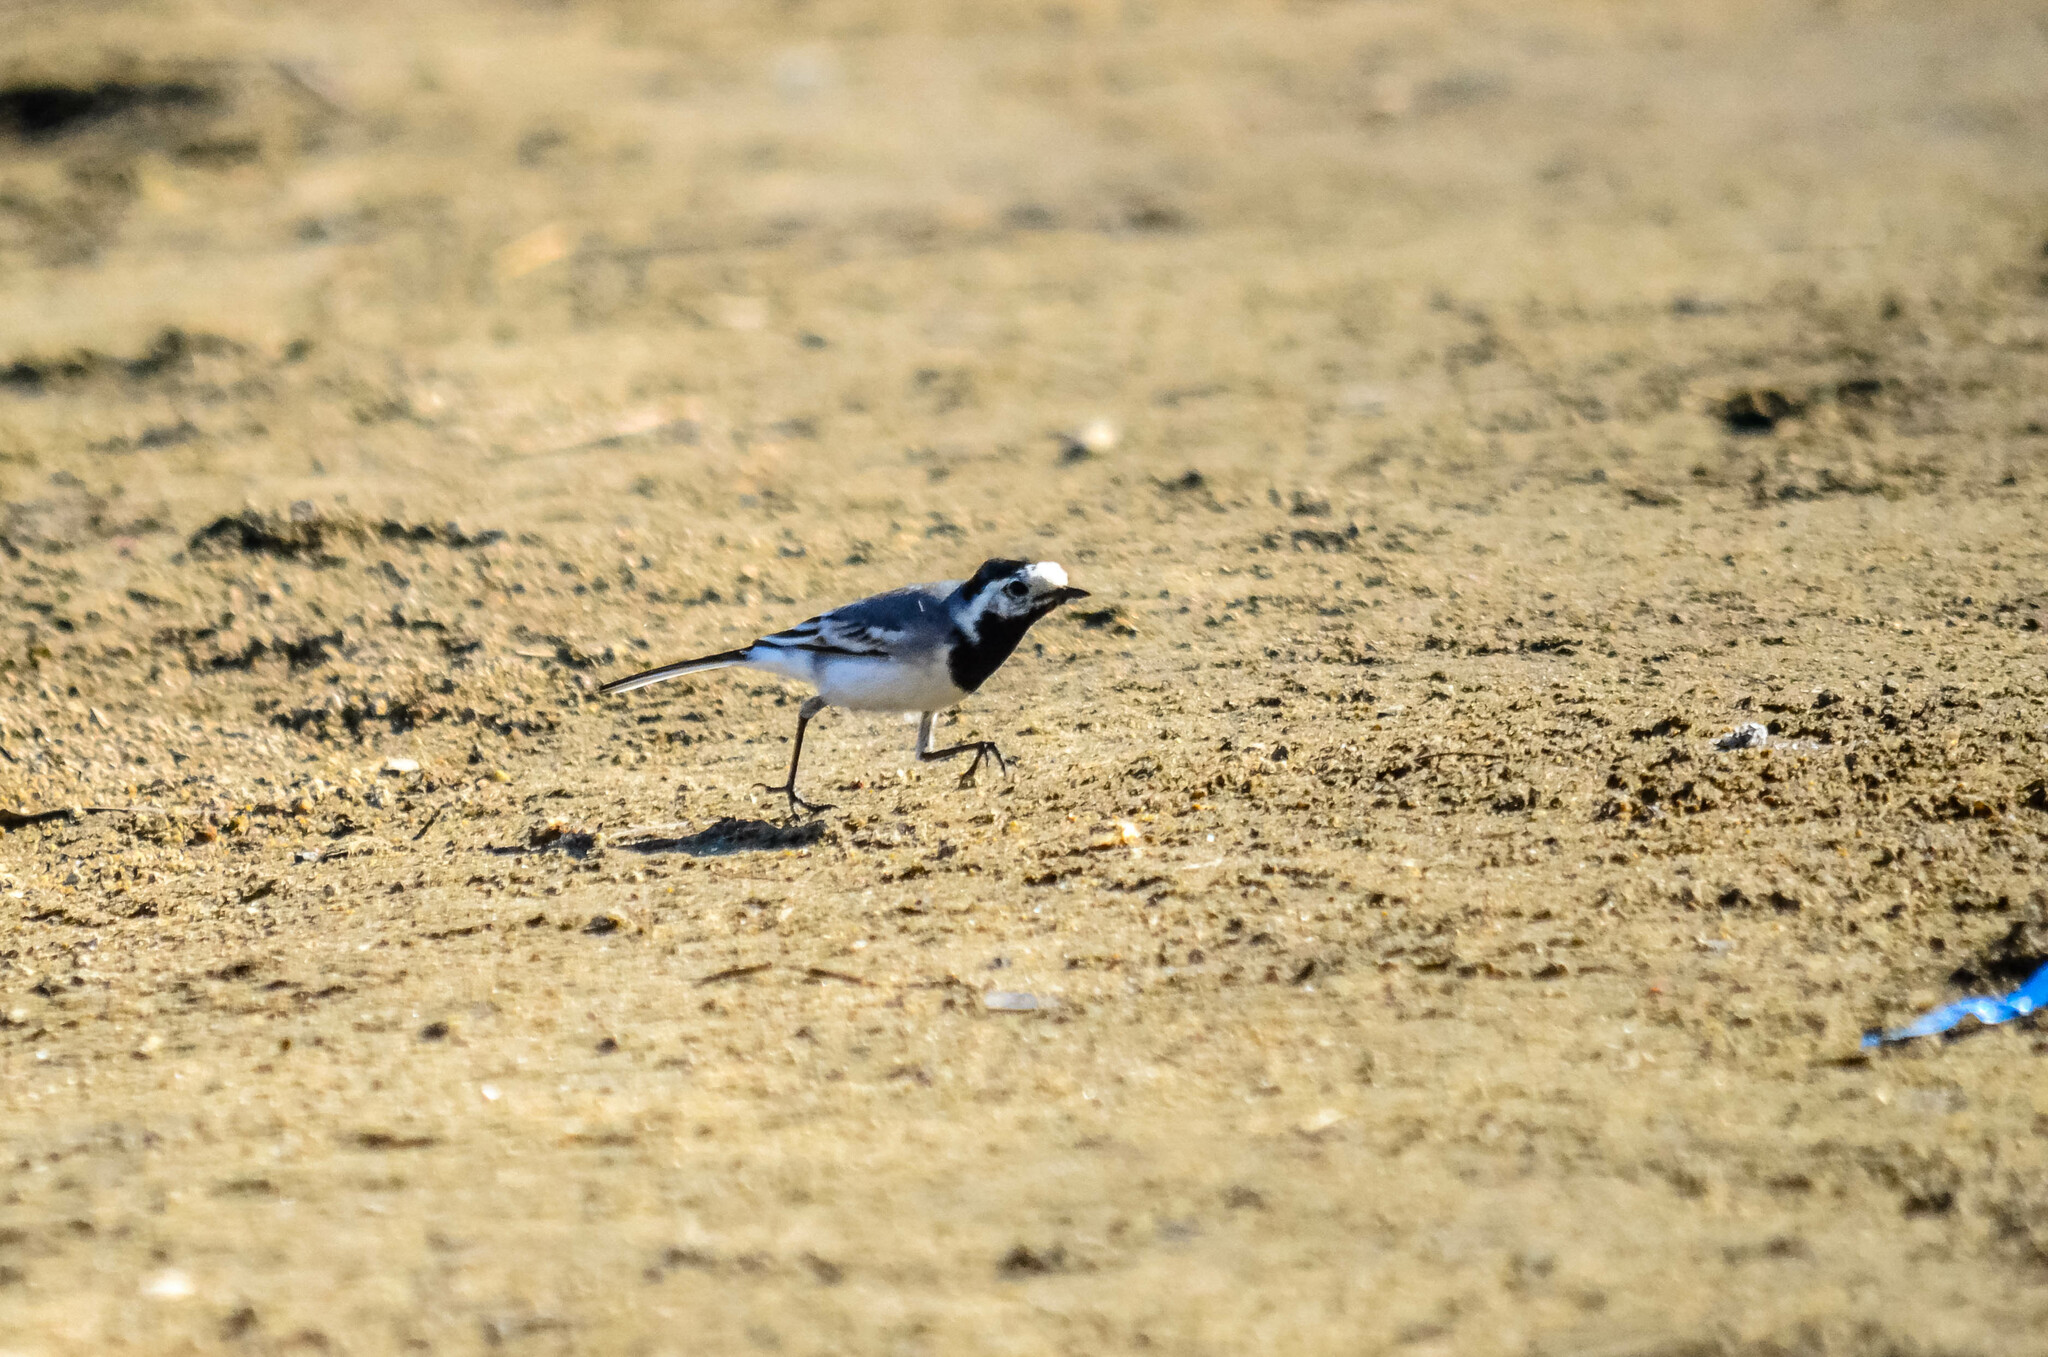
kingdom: Animalia
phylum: Chordata
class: Aves
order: Passeriformes
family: Motacillidae
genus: Motacilla
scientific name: Motacilla alba
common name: White wagtail
